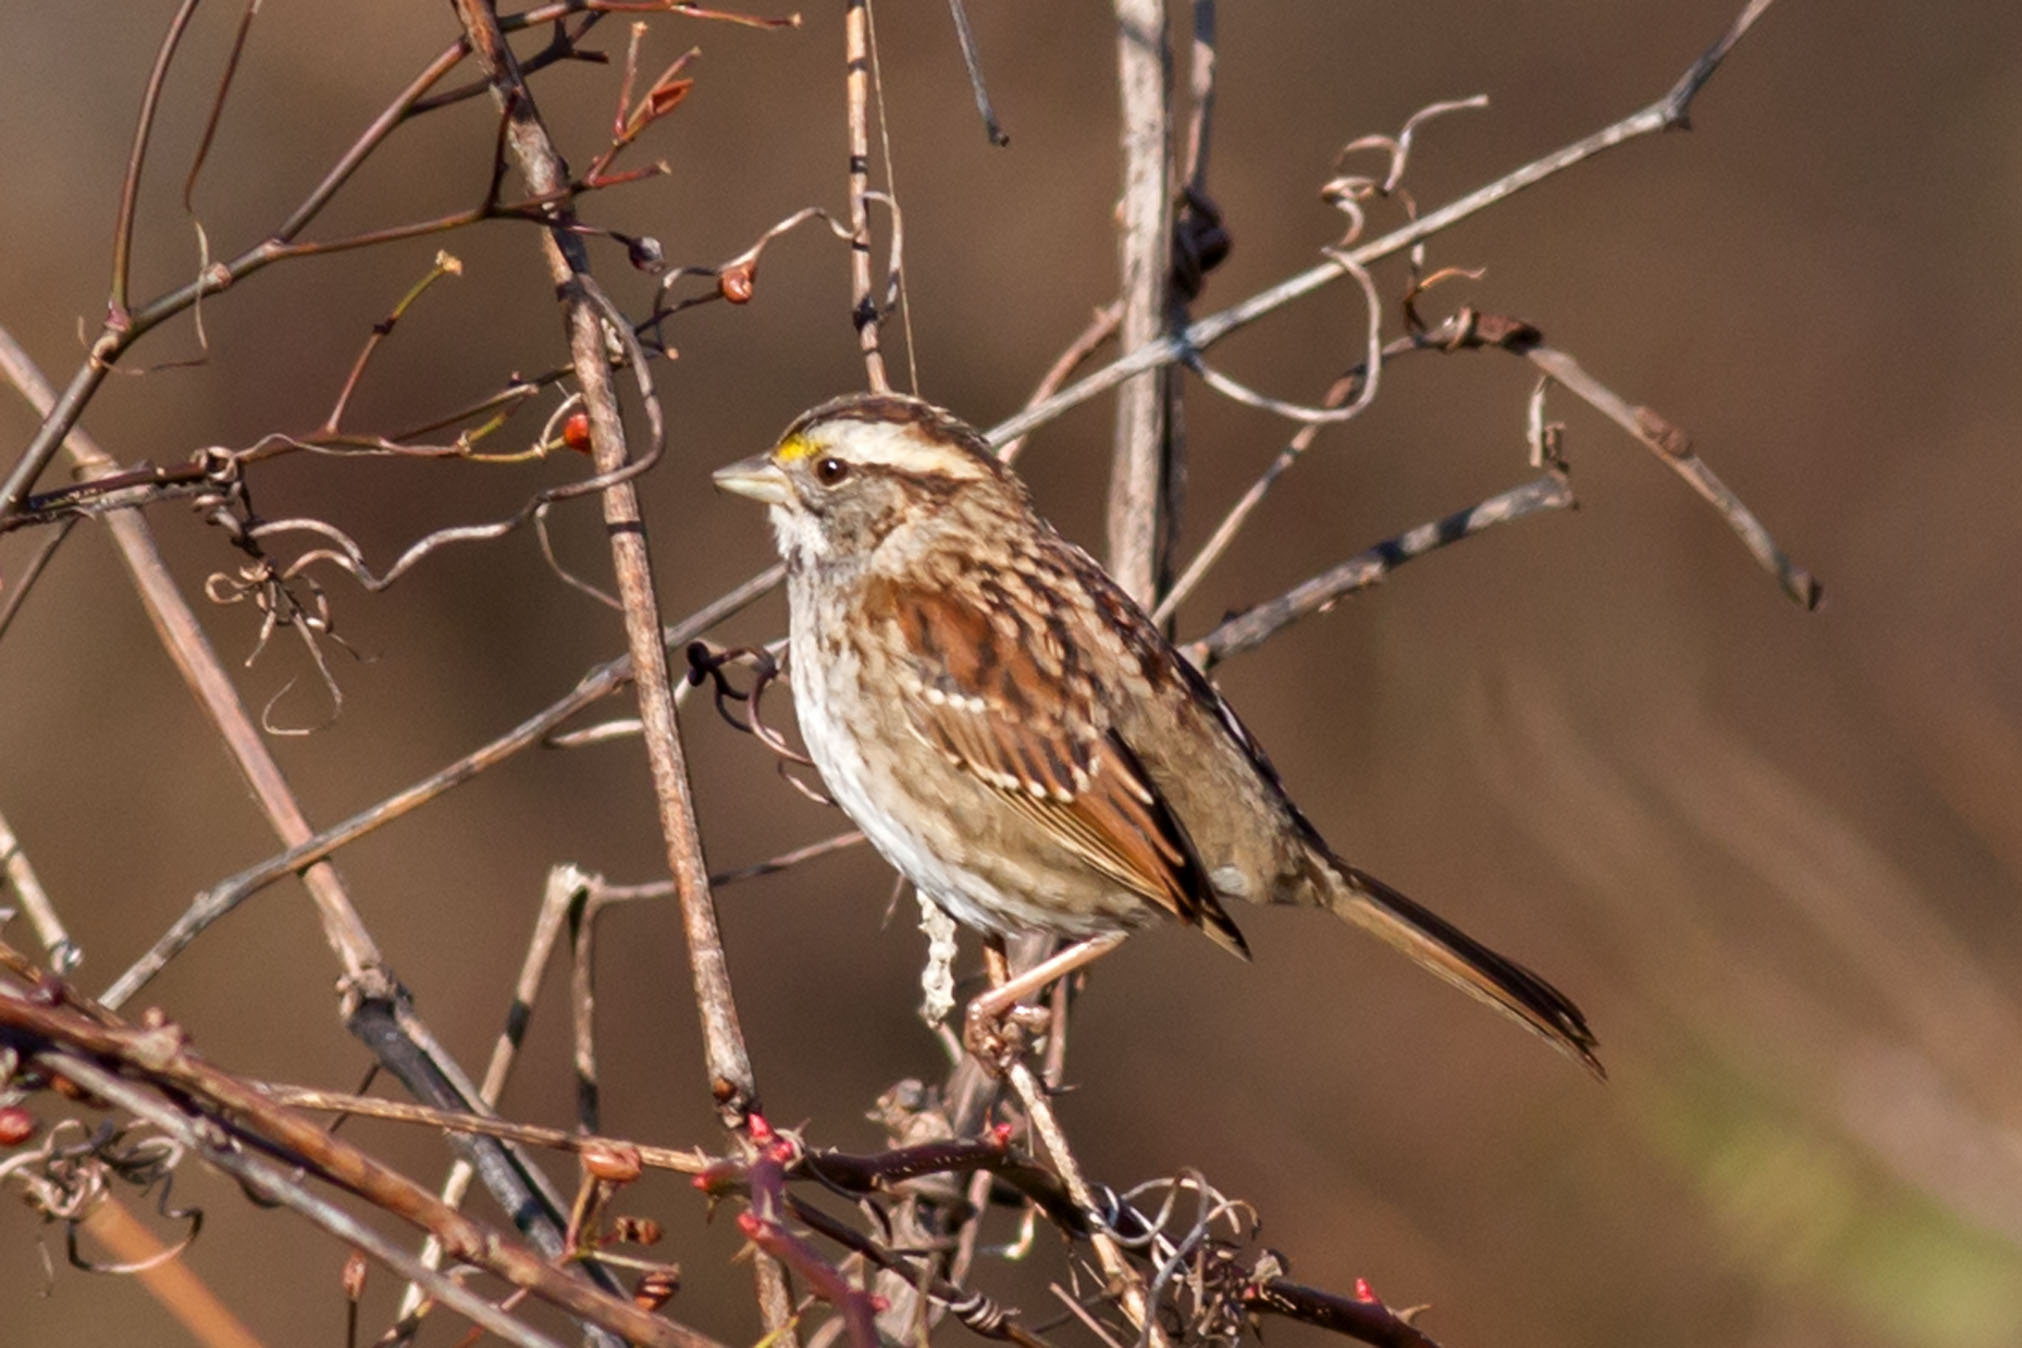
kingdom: Animalia
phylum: Chordata
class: Aves
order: Passeriformes
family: Passerellidae
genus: Zonotrichia
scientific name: Zonotrichia albicollis
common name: White-throated sparrow
